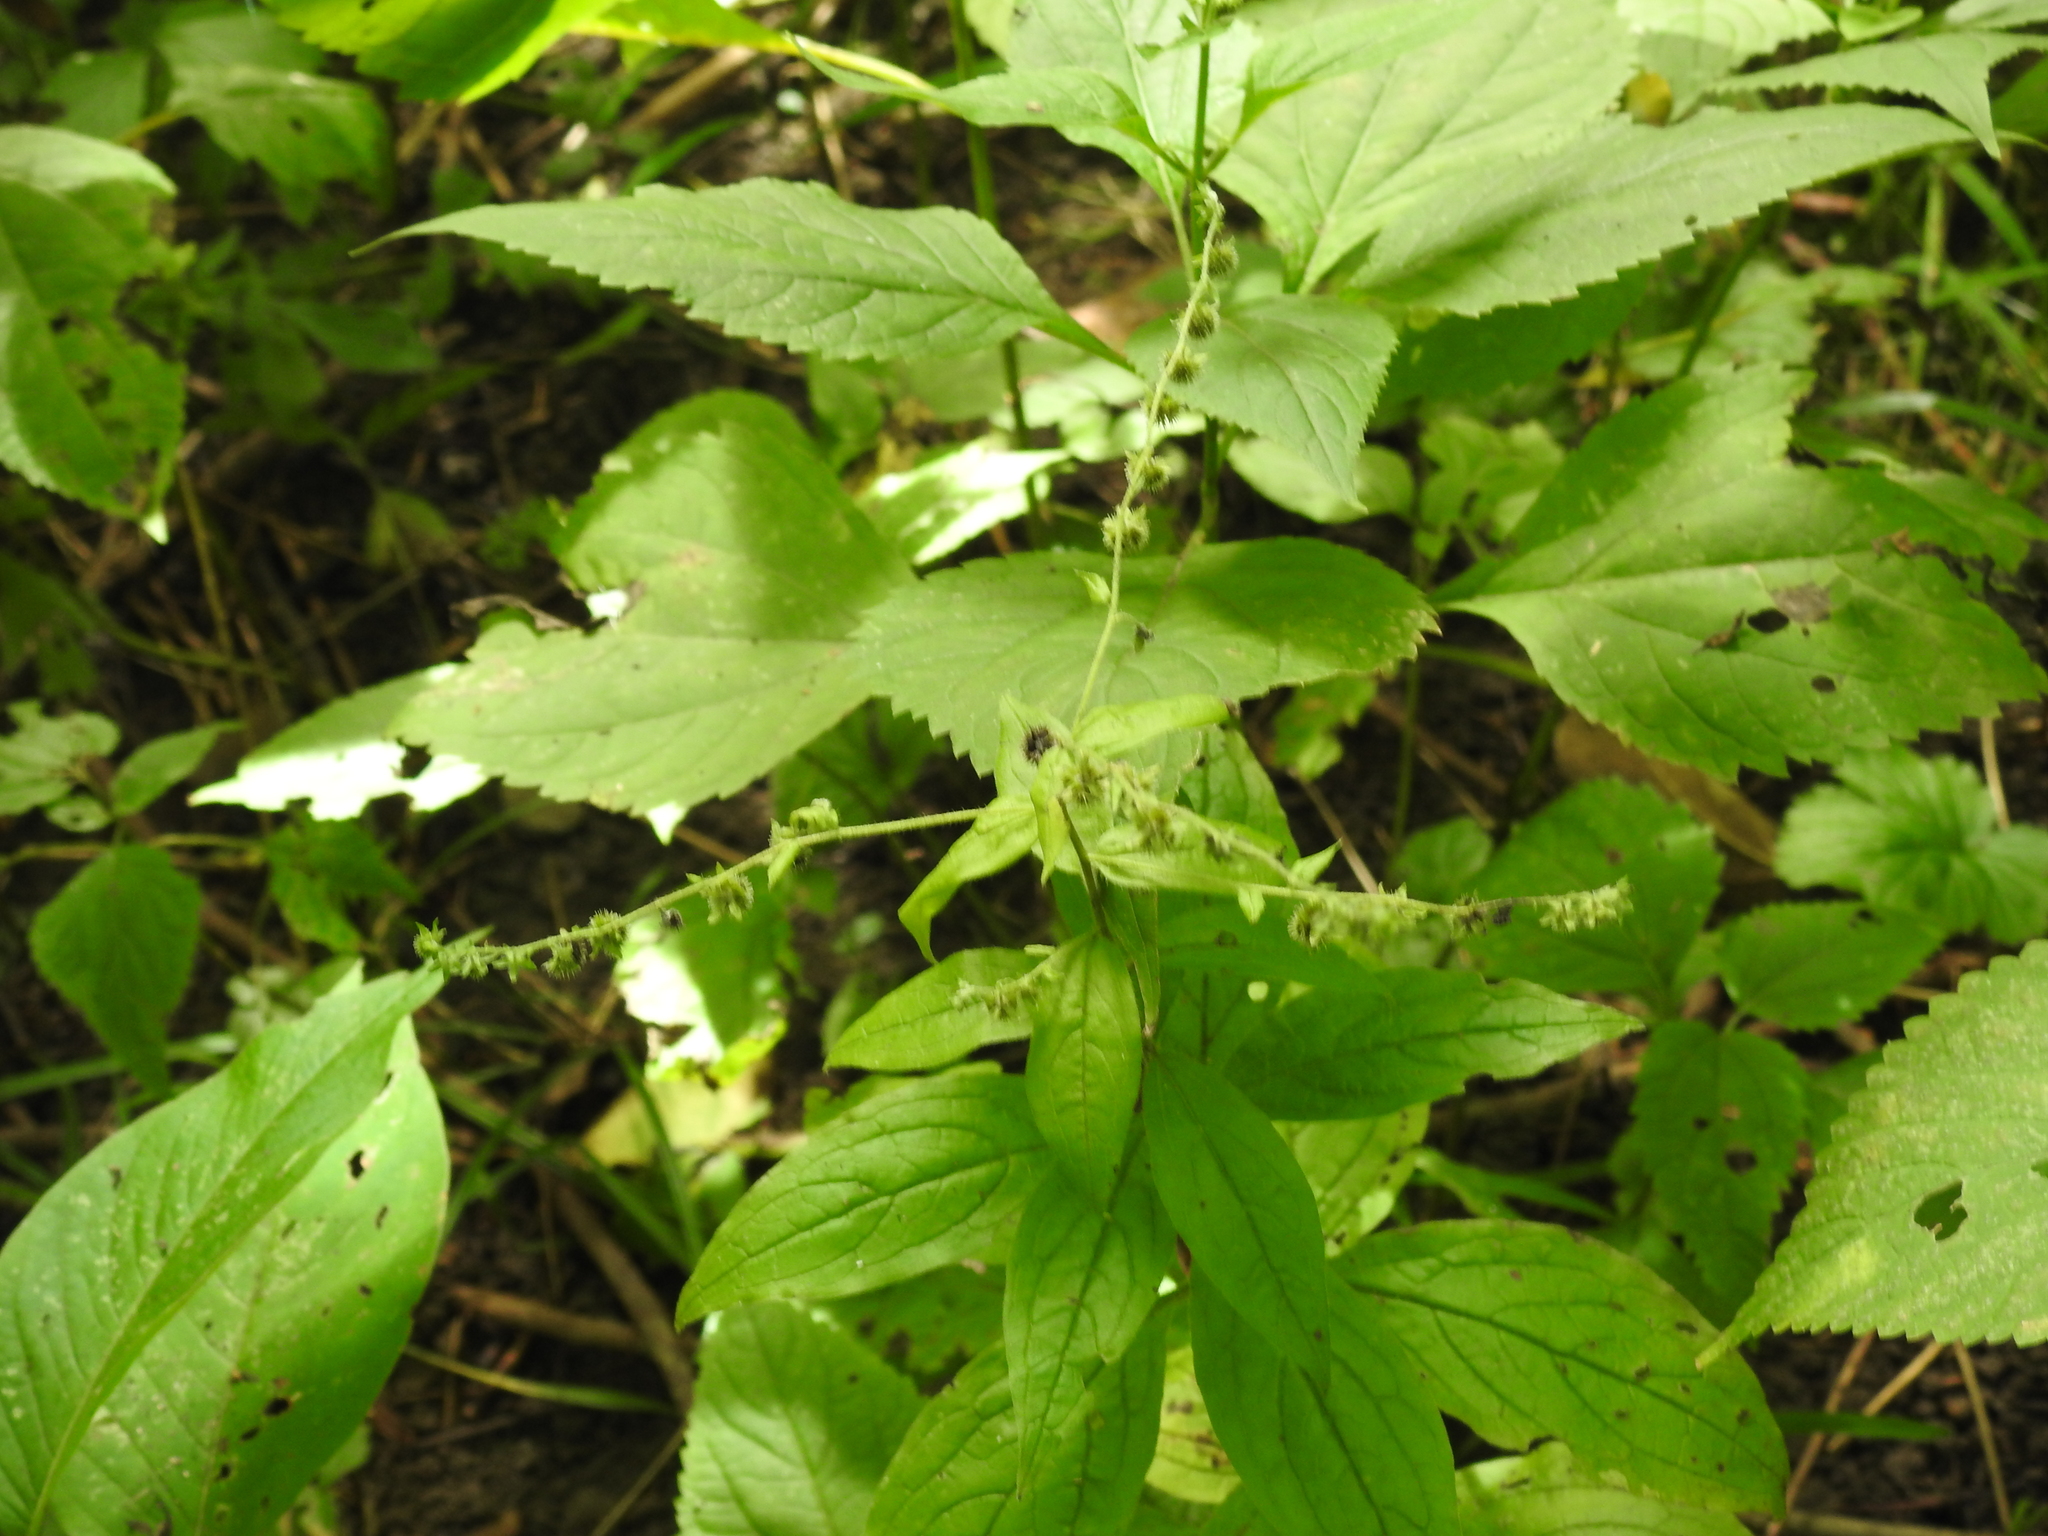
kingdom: Plantae
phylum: Tracheophyta
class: Magnoliopsida
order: Boraginales
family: Boraginaceae
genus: Hackelia
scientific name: Hackelia virginiana
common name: Beggar's-lice
